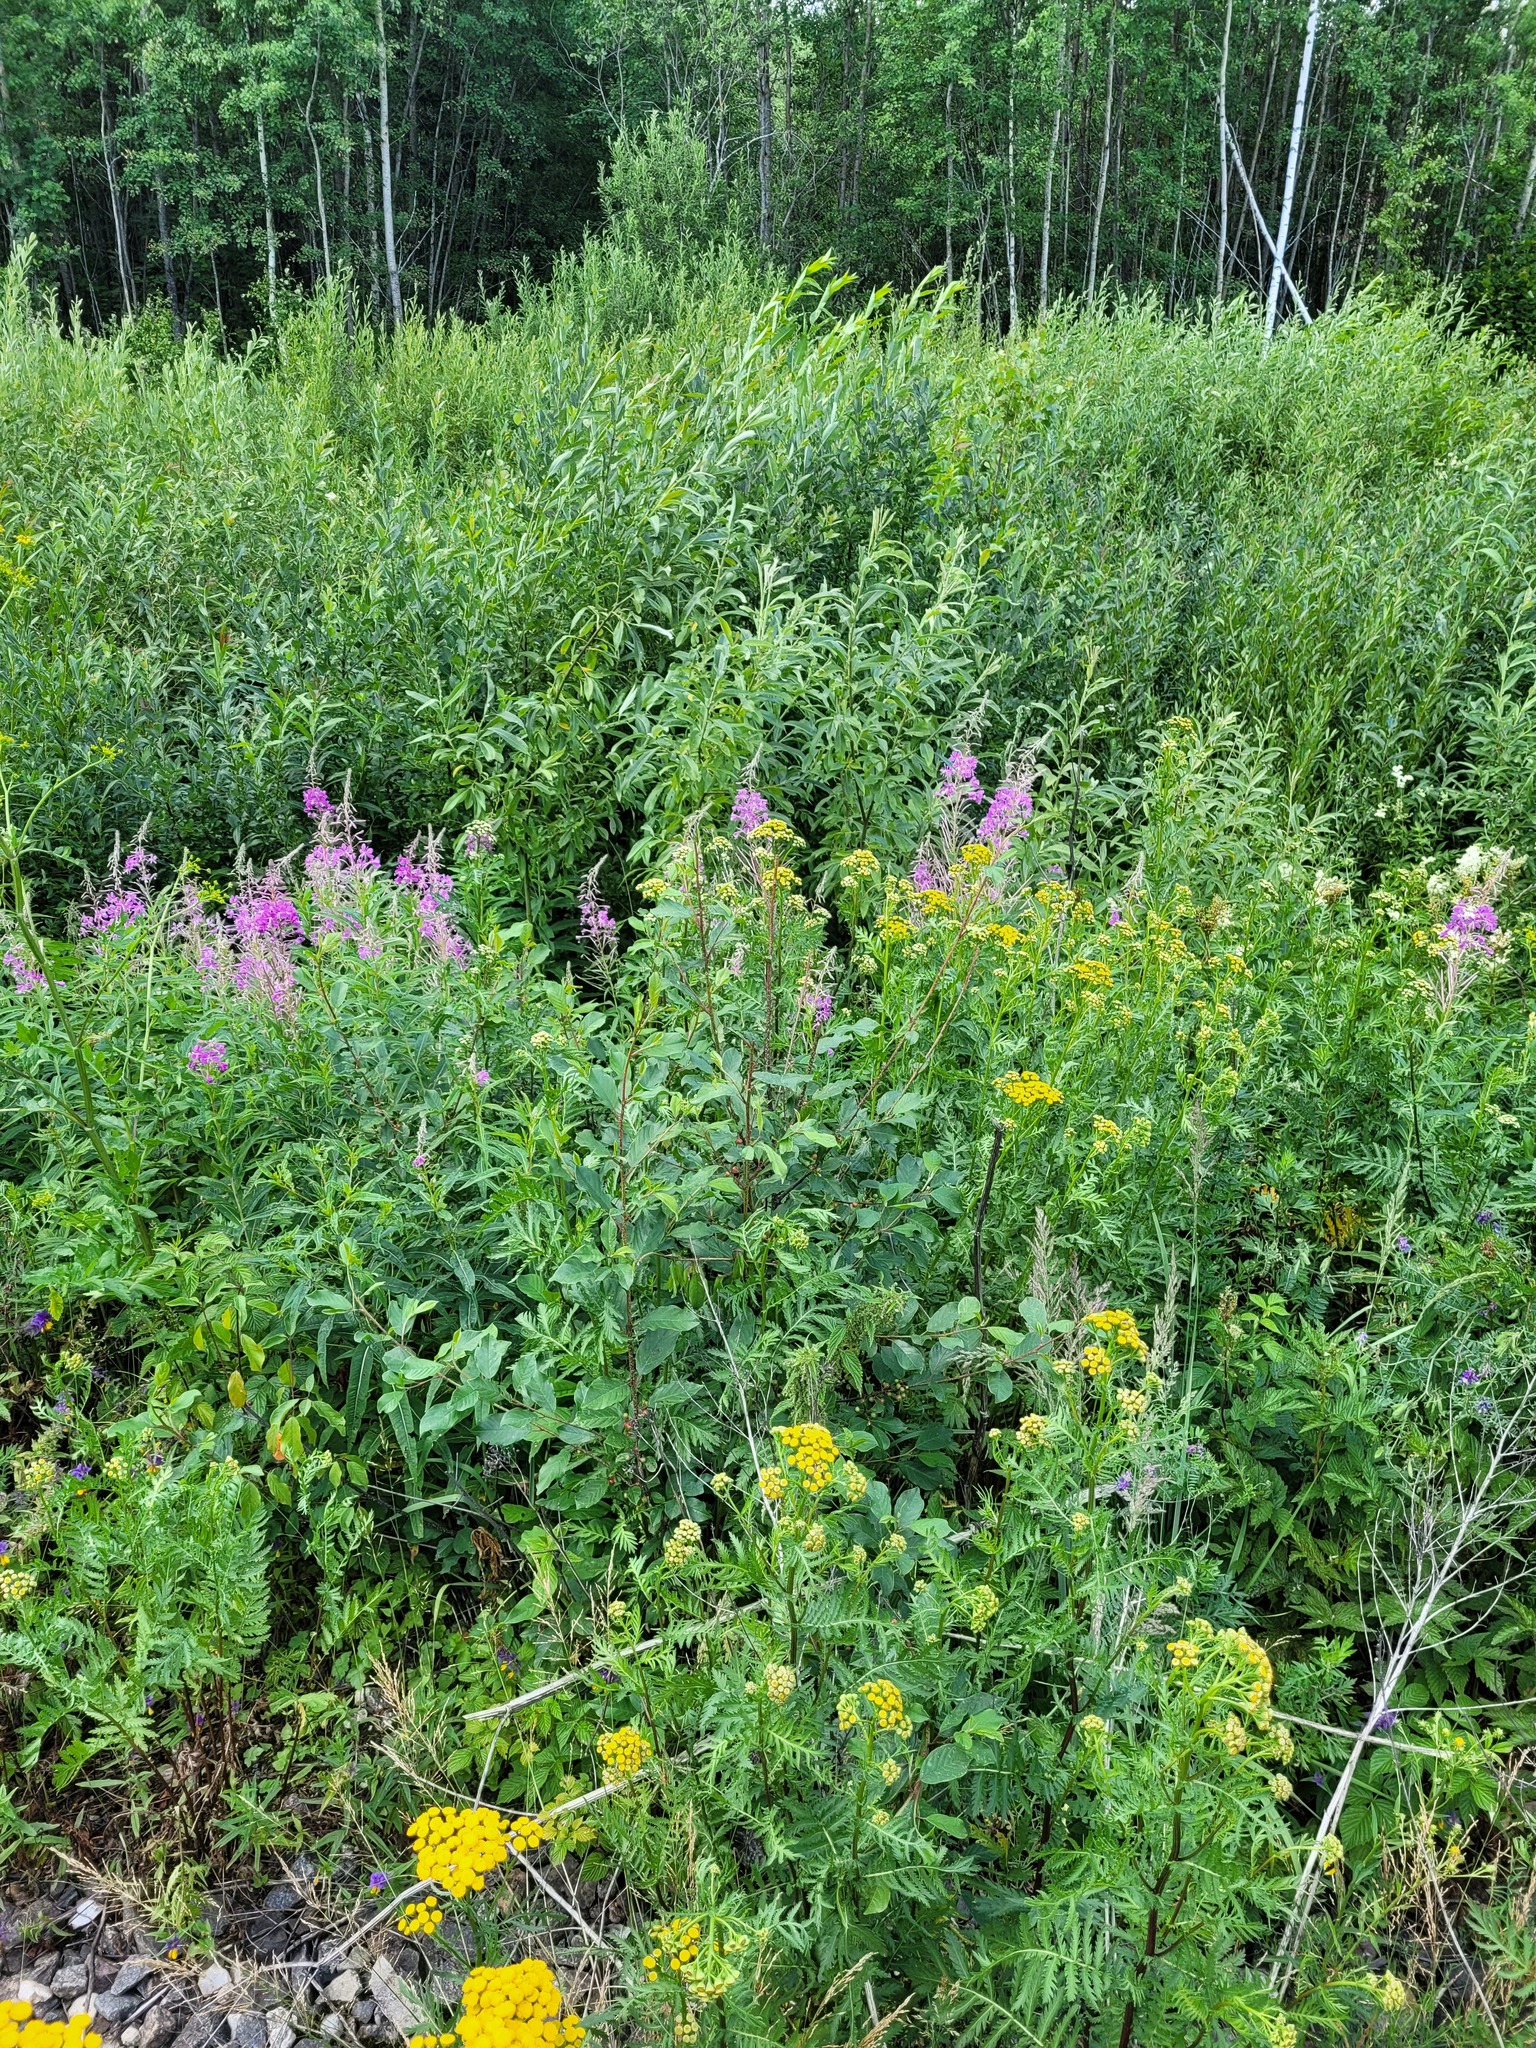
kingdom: Plantae
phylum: Tracheophyta
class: Magnoliopsida
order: Rosales
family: Rhamnaceae
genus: Frangula
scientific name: Frangula alnus
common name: Alder buckthorn
